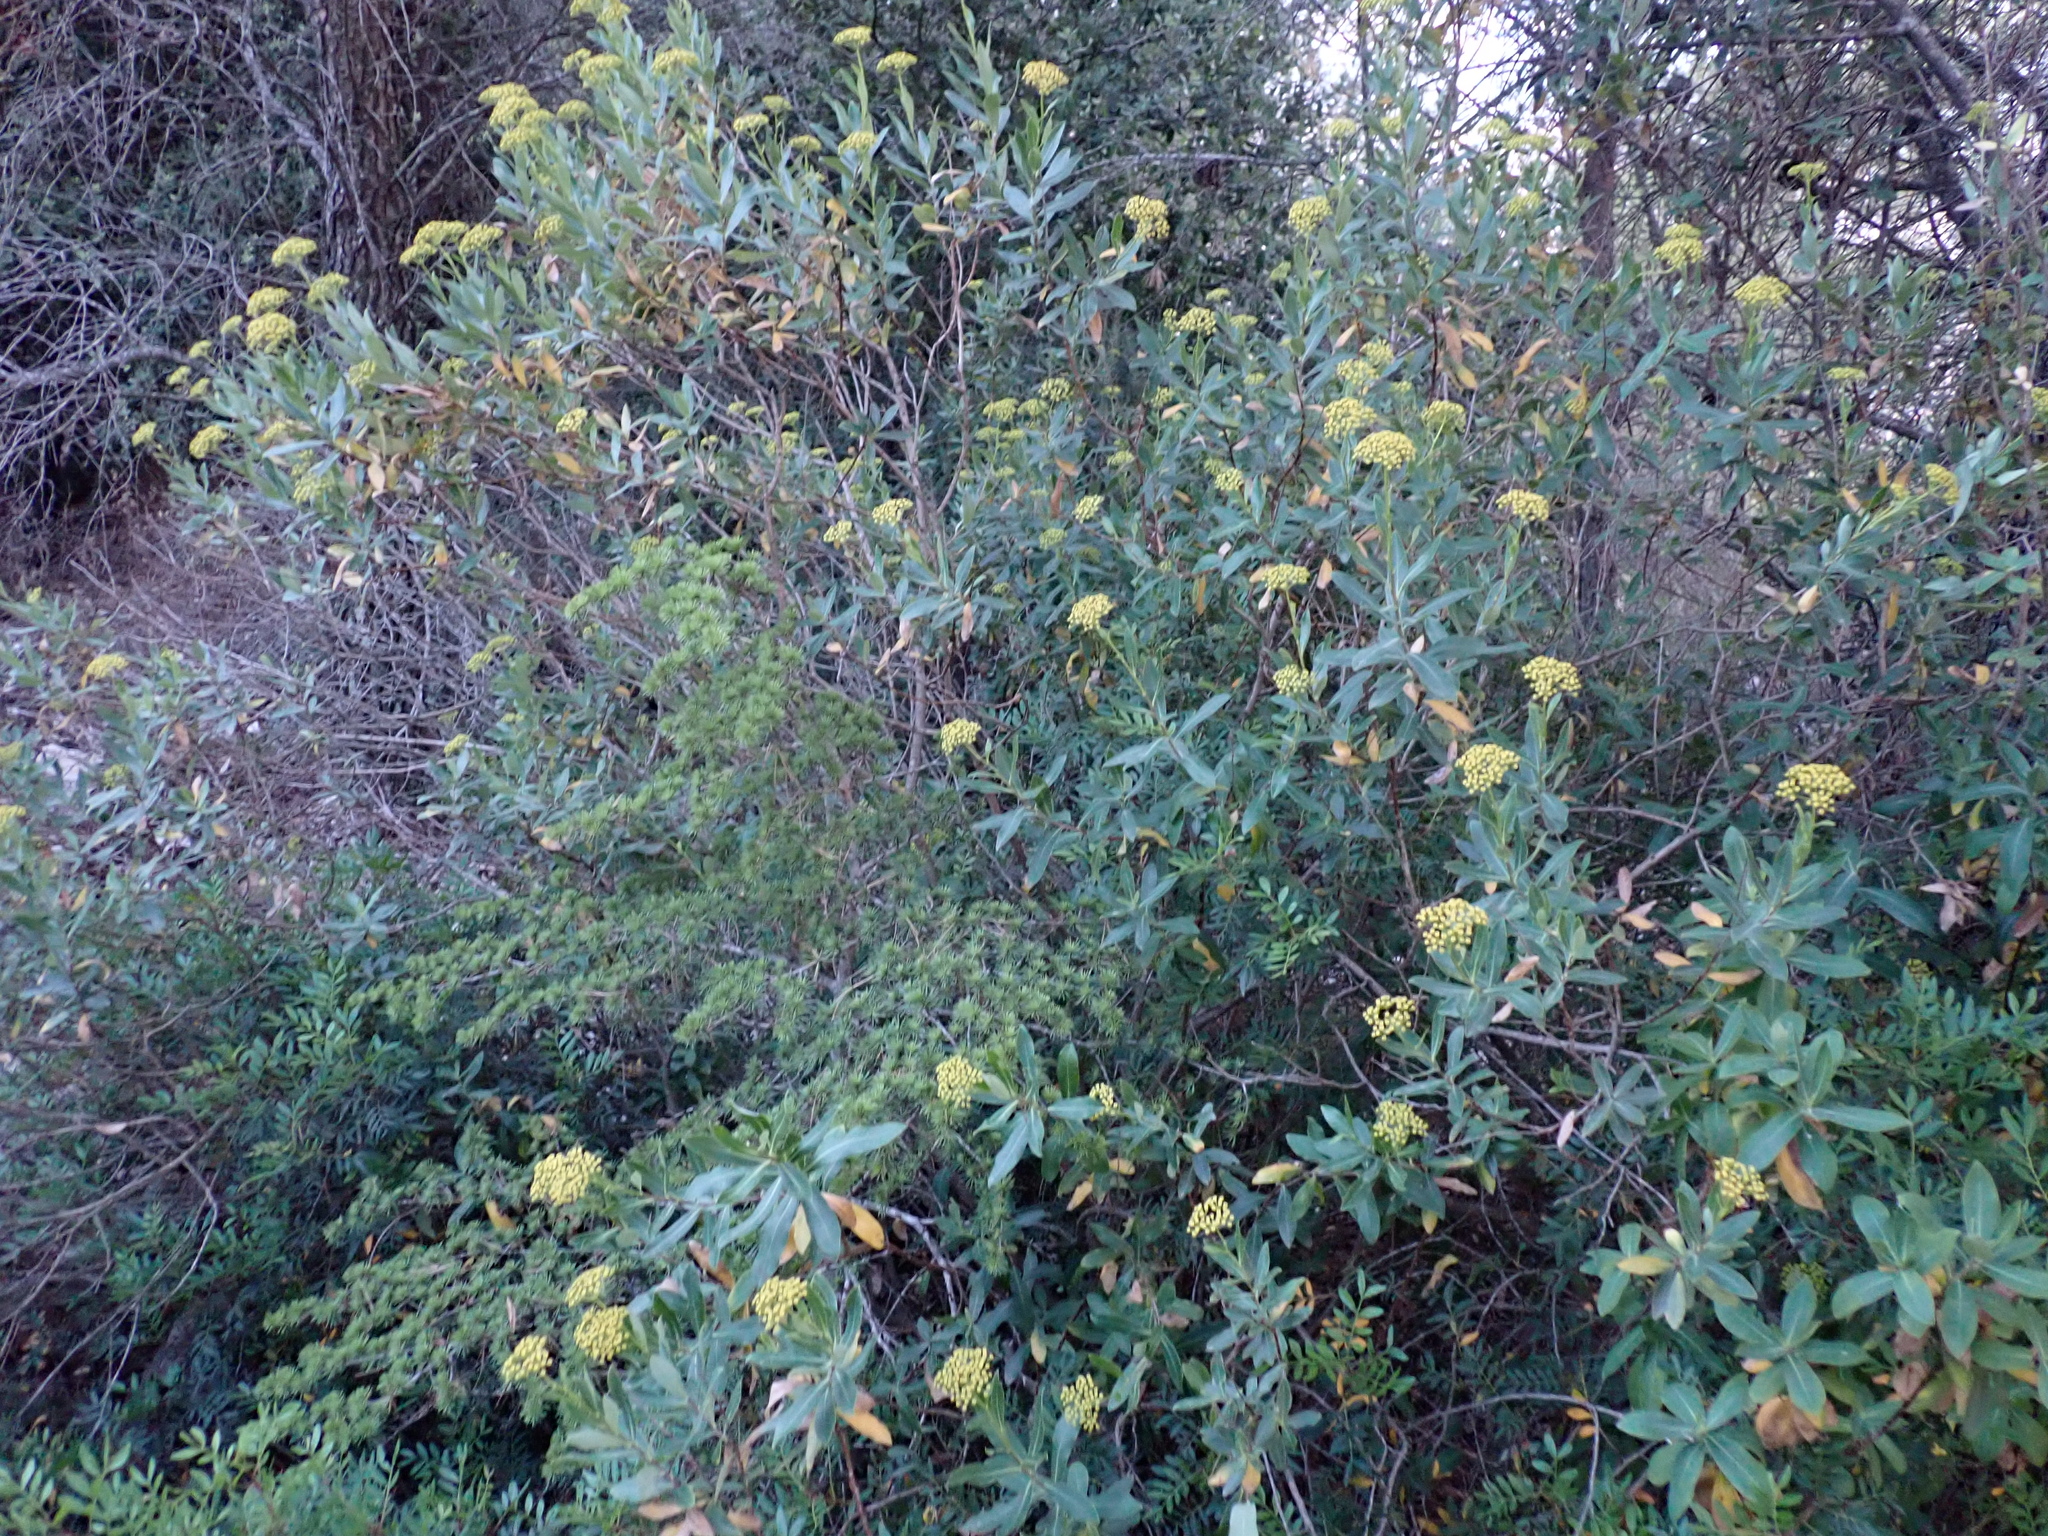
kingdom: Plantae
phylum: Tracheophyta
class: Magnoliopsida
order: Apiales
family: Apiaceae
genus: Bupleurum
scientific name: Bupleurum fruticosum
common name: Shrubby hare's-ear
